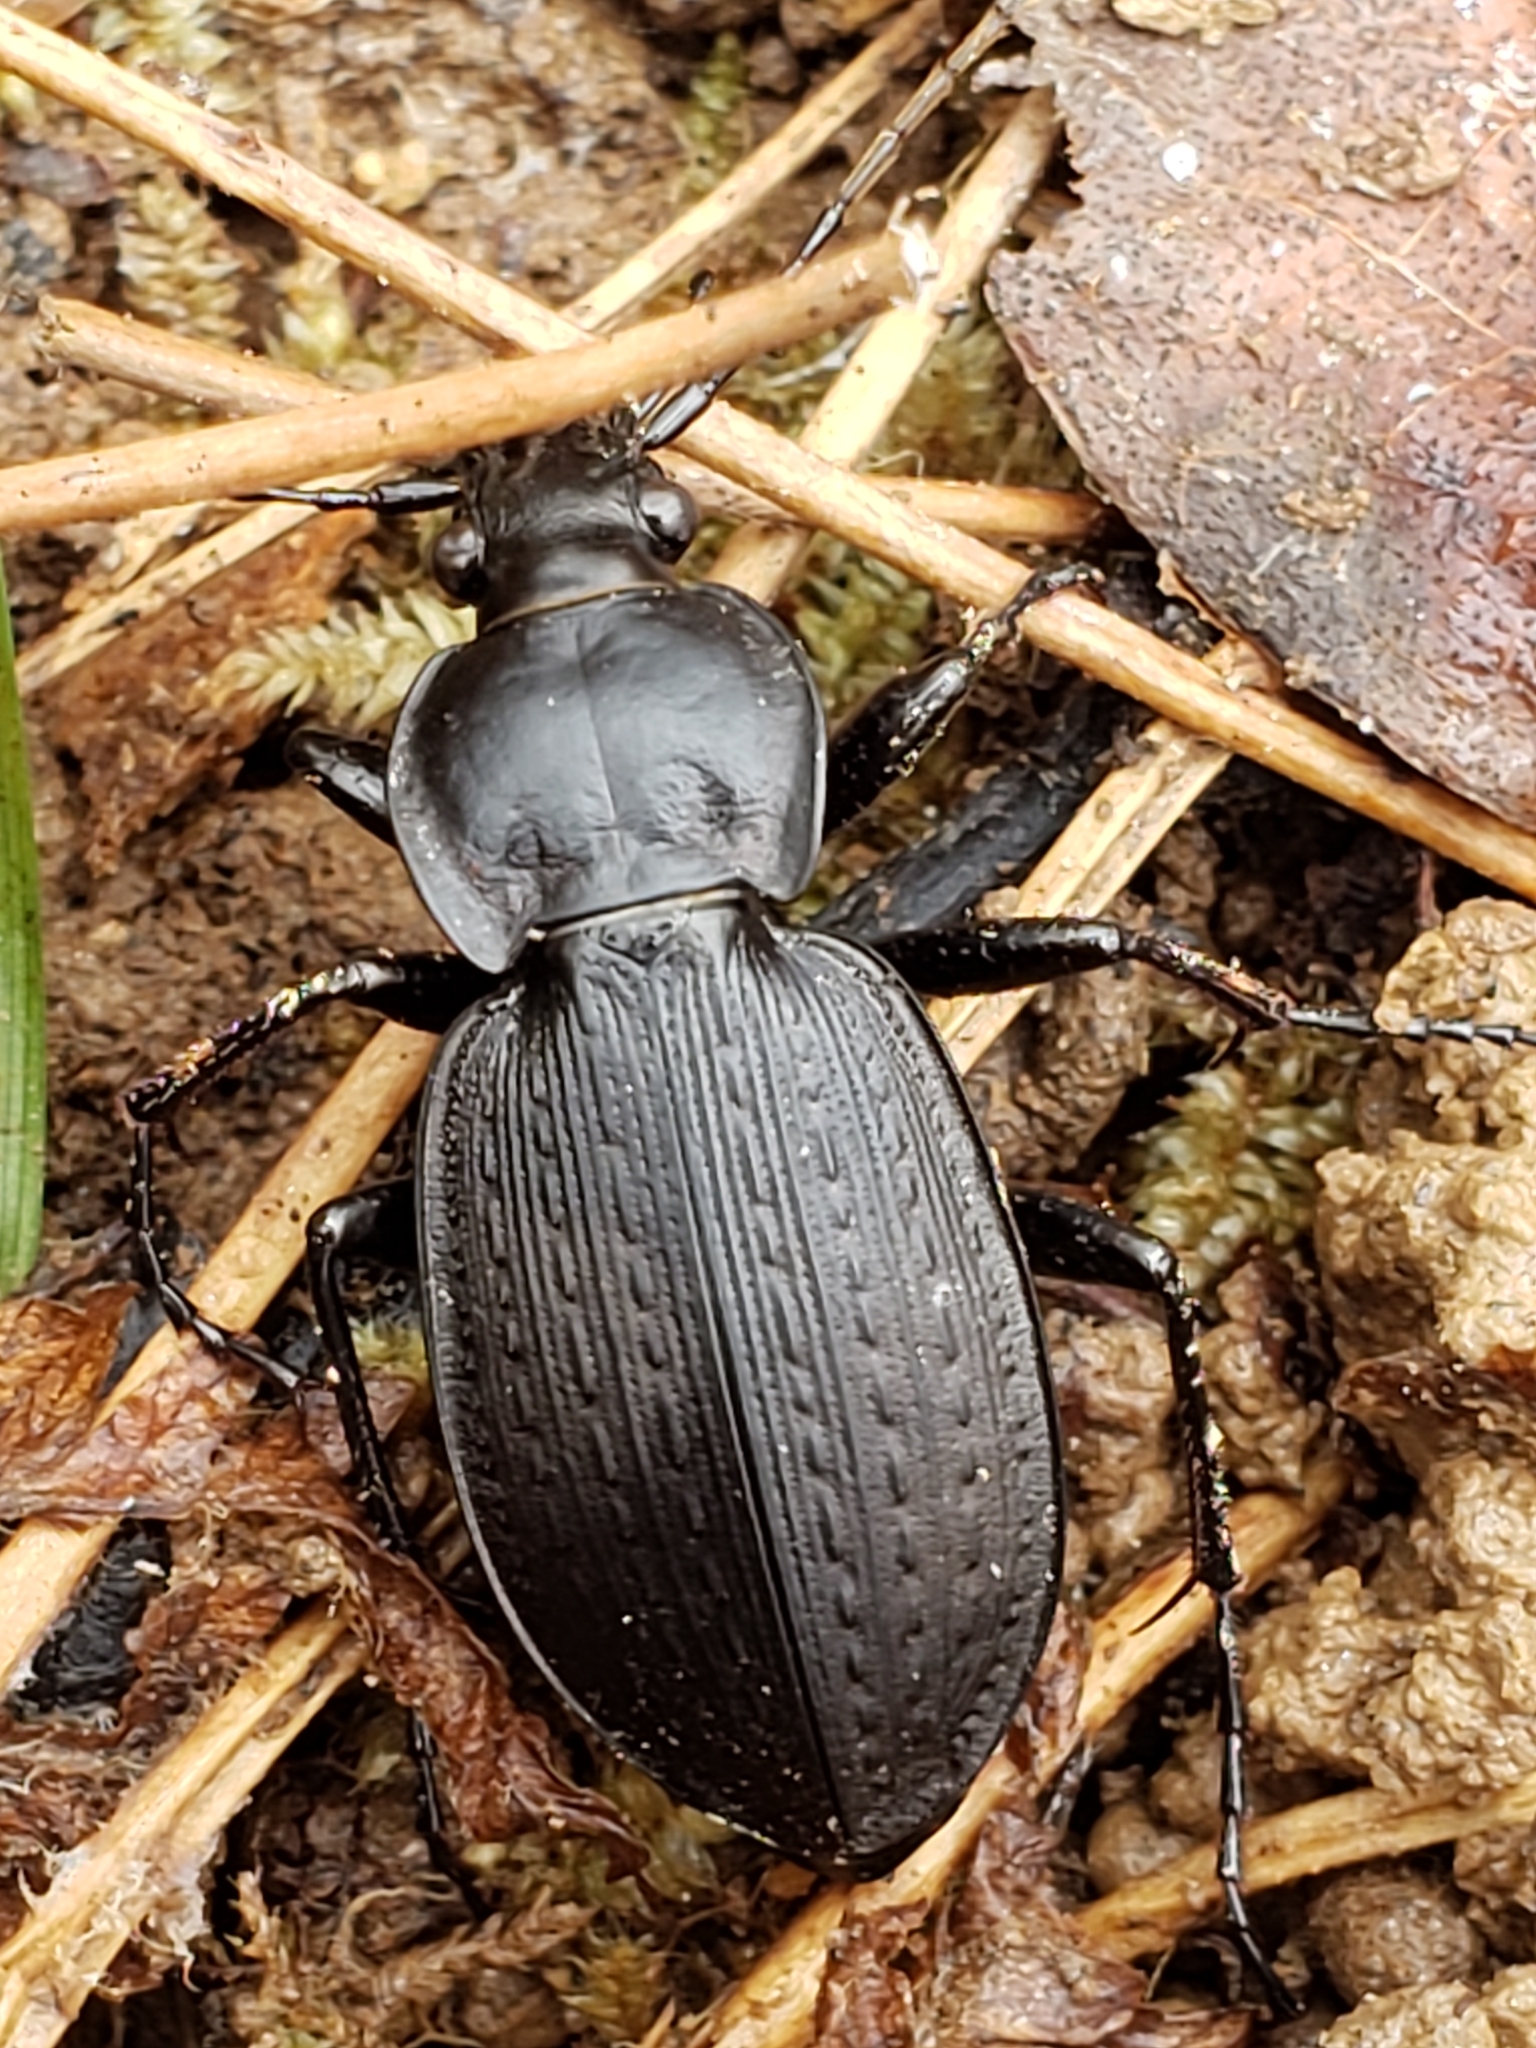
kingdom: Animalia
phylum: Arthropoda
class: Insecta
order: Coleoptera
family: Carabidae
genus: Carabus
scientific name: Carabus vinctus
